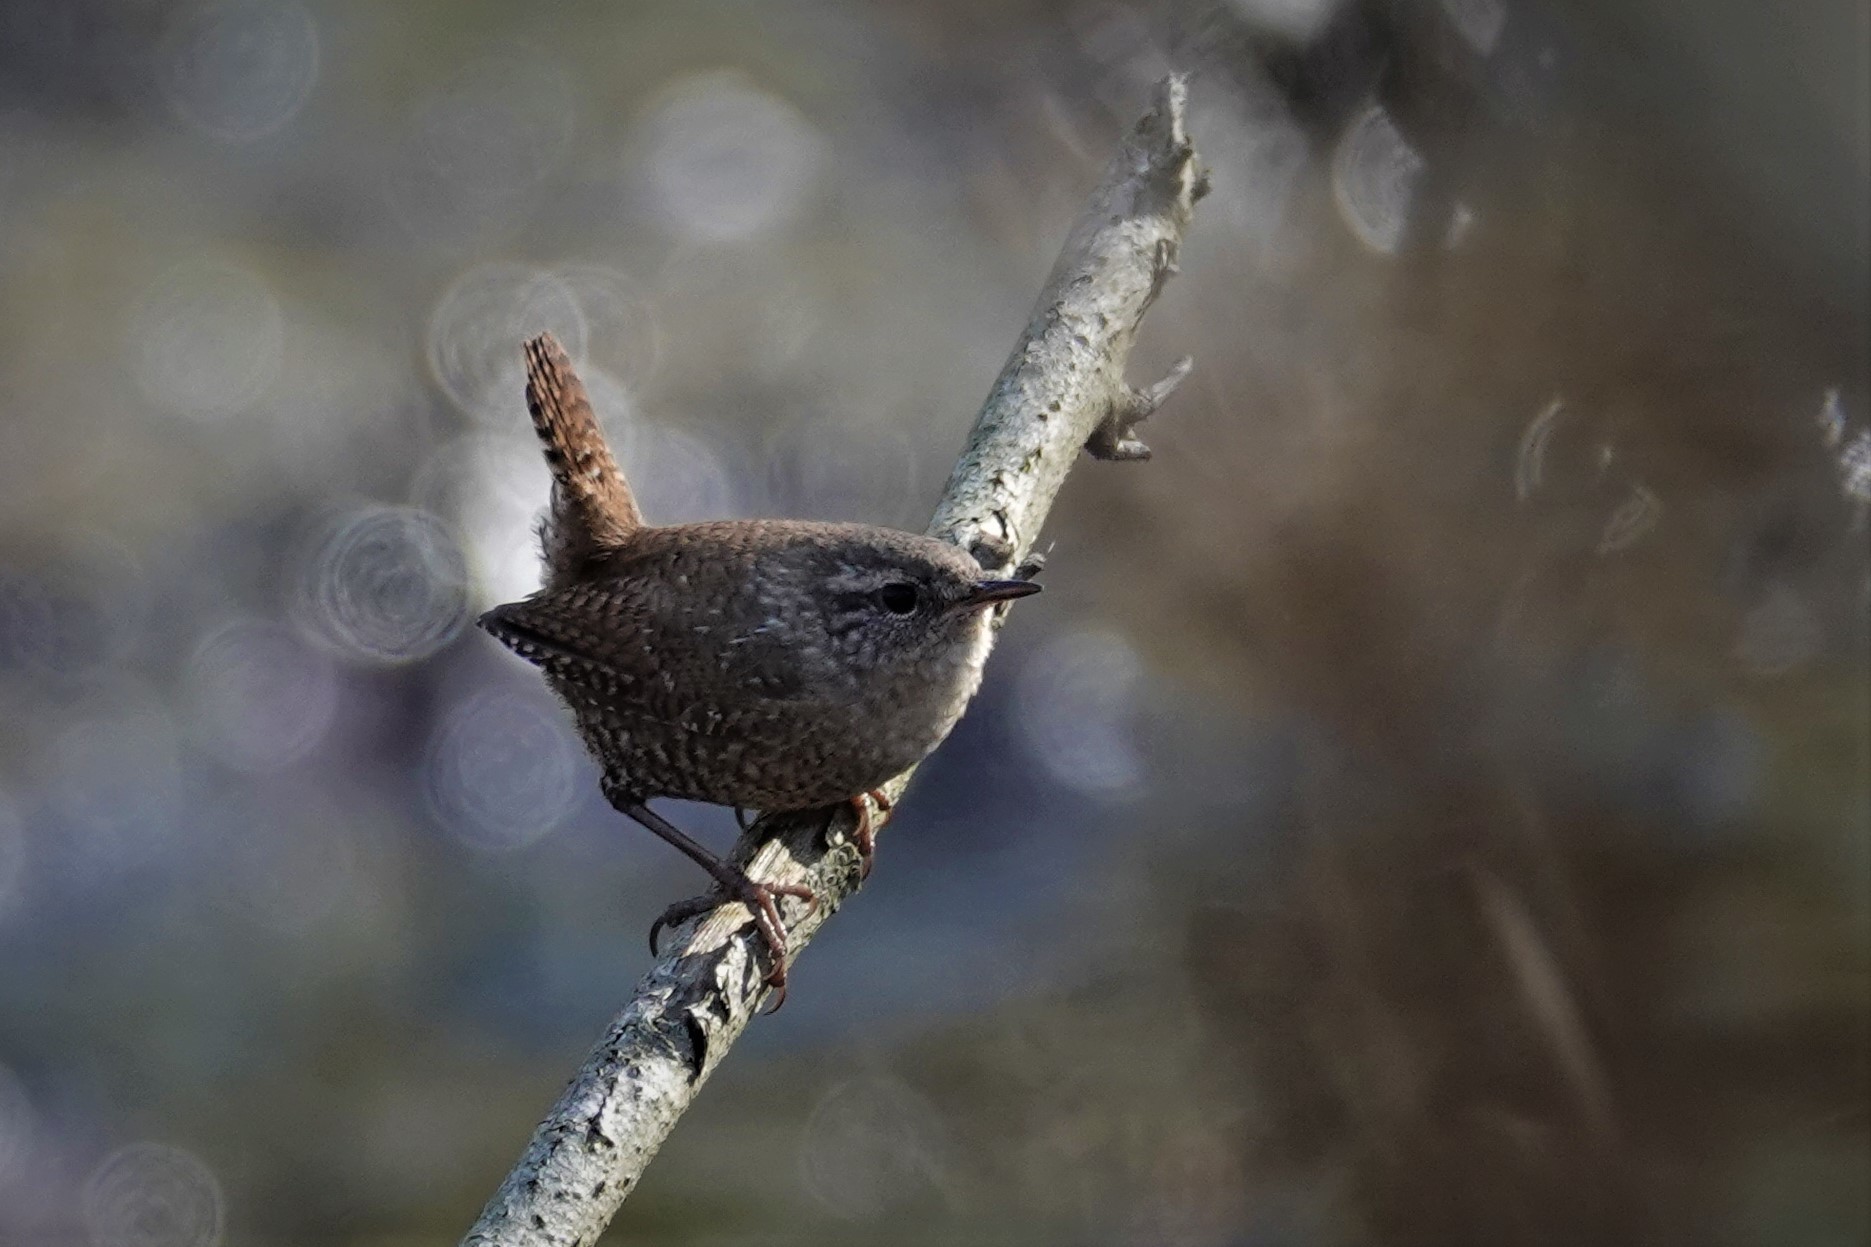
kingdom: Animalia
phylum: Chordata
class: Aves
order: Passeriformes
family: Troglodytidae
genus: Troglodytes
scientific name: Troglodytes hiemalis
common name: Winter wren
